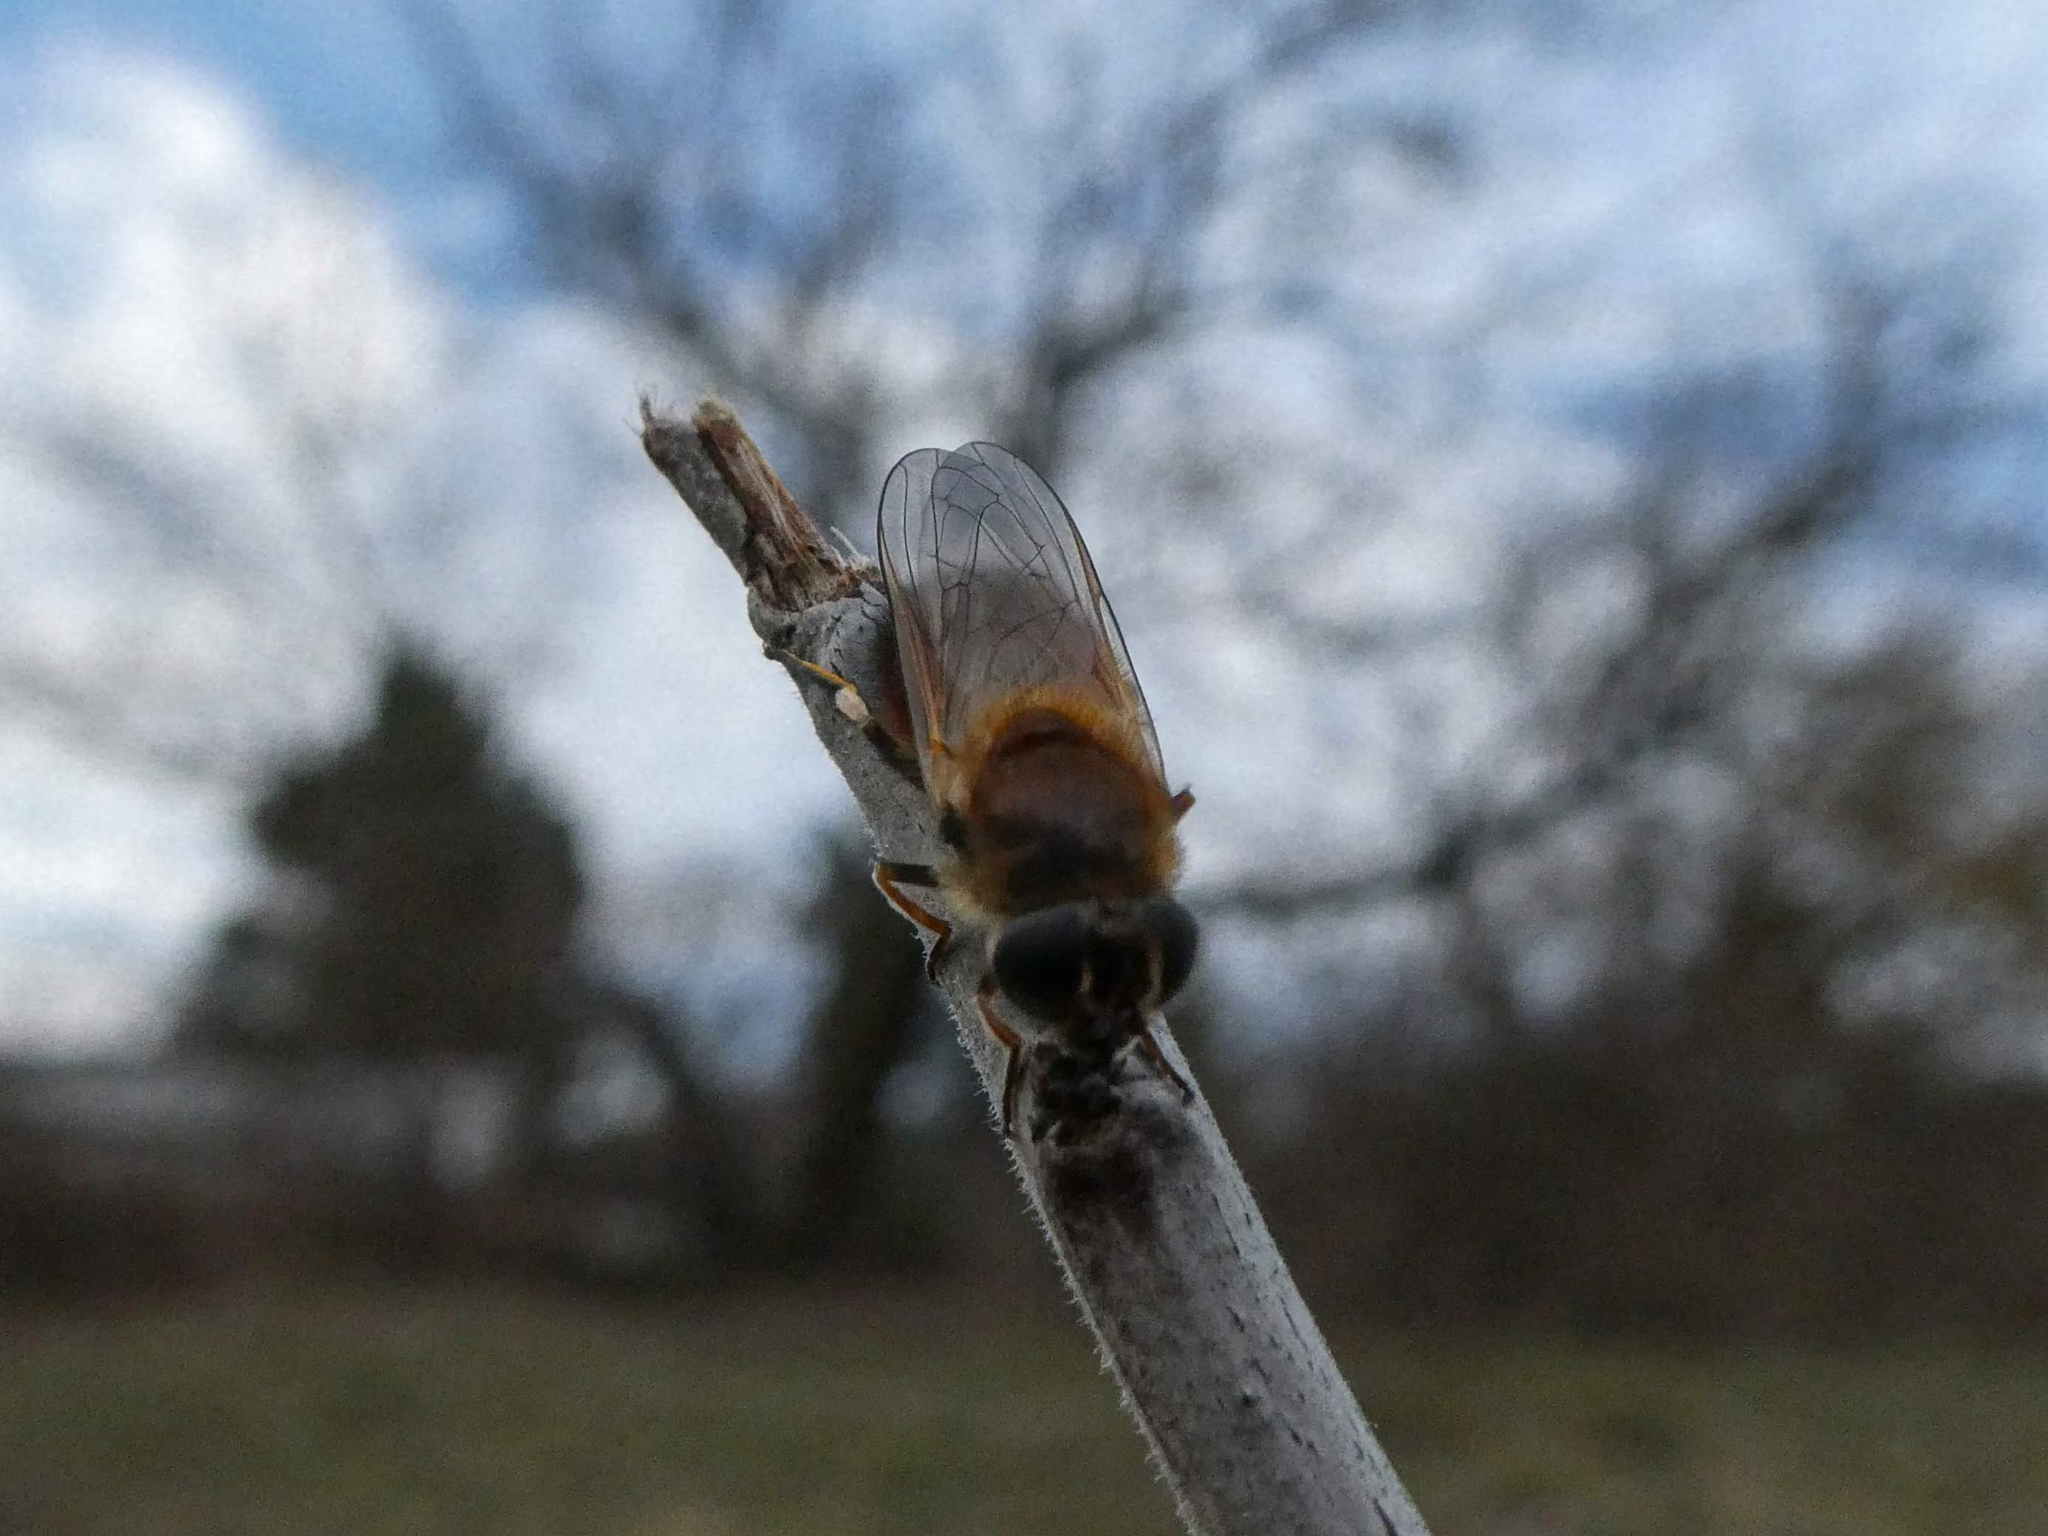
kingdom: Animalia
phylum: Arthropoda
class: Insecta
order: Diptera
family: Syrphidae
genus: Cheilosia
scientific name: Cheilosia corydon
